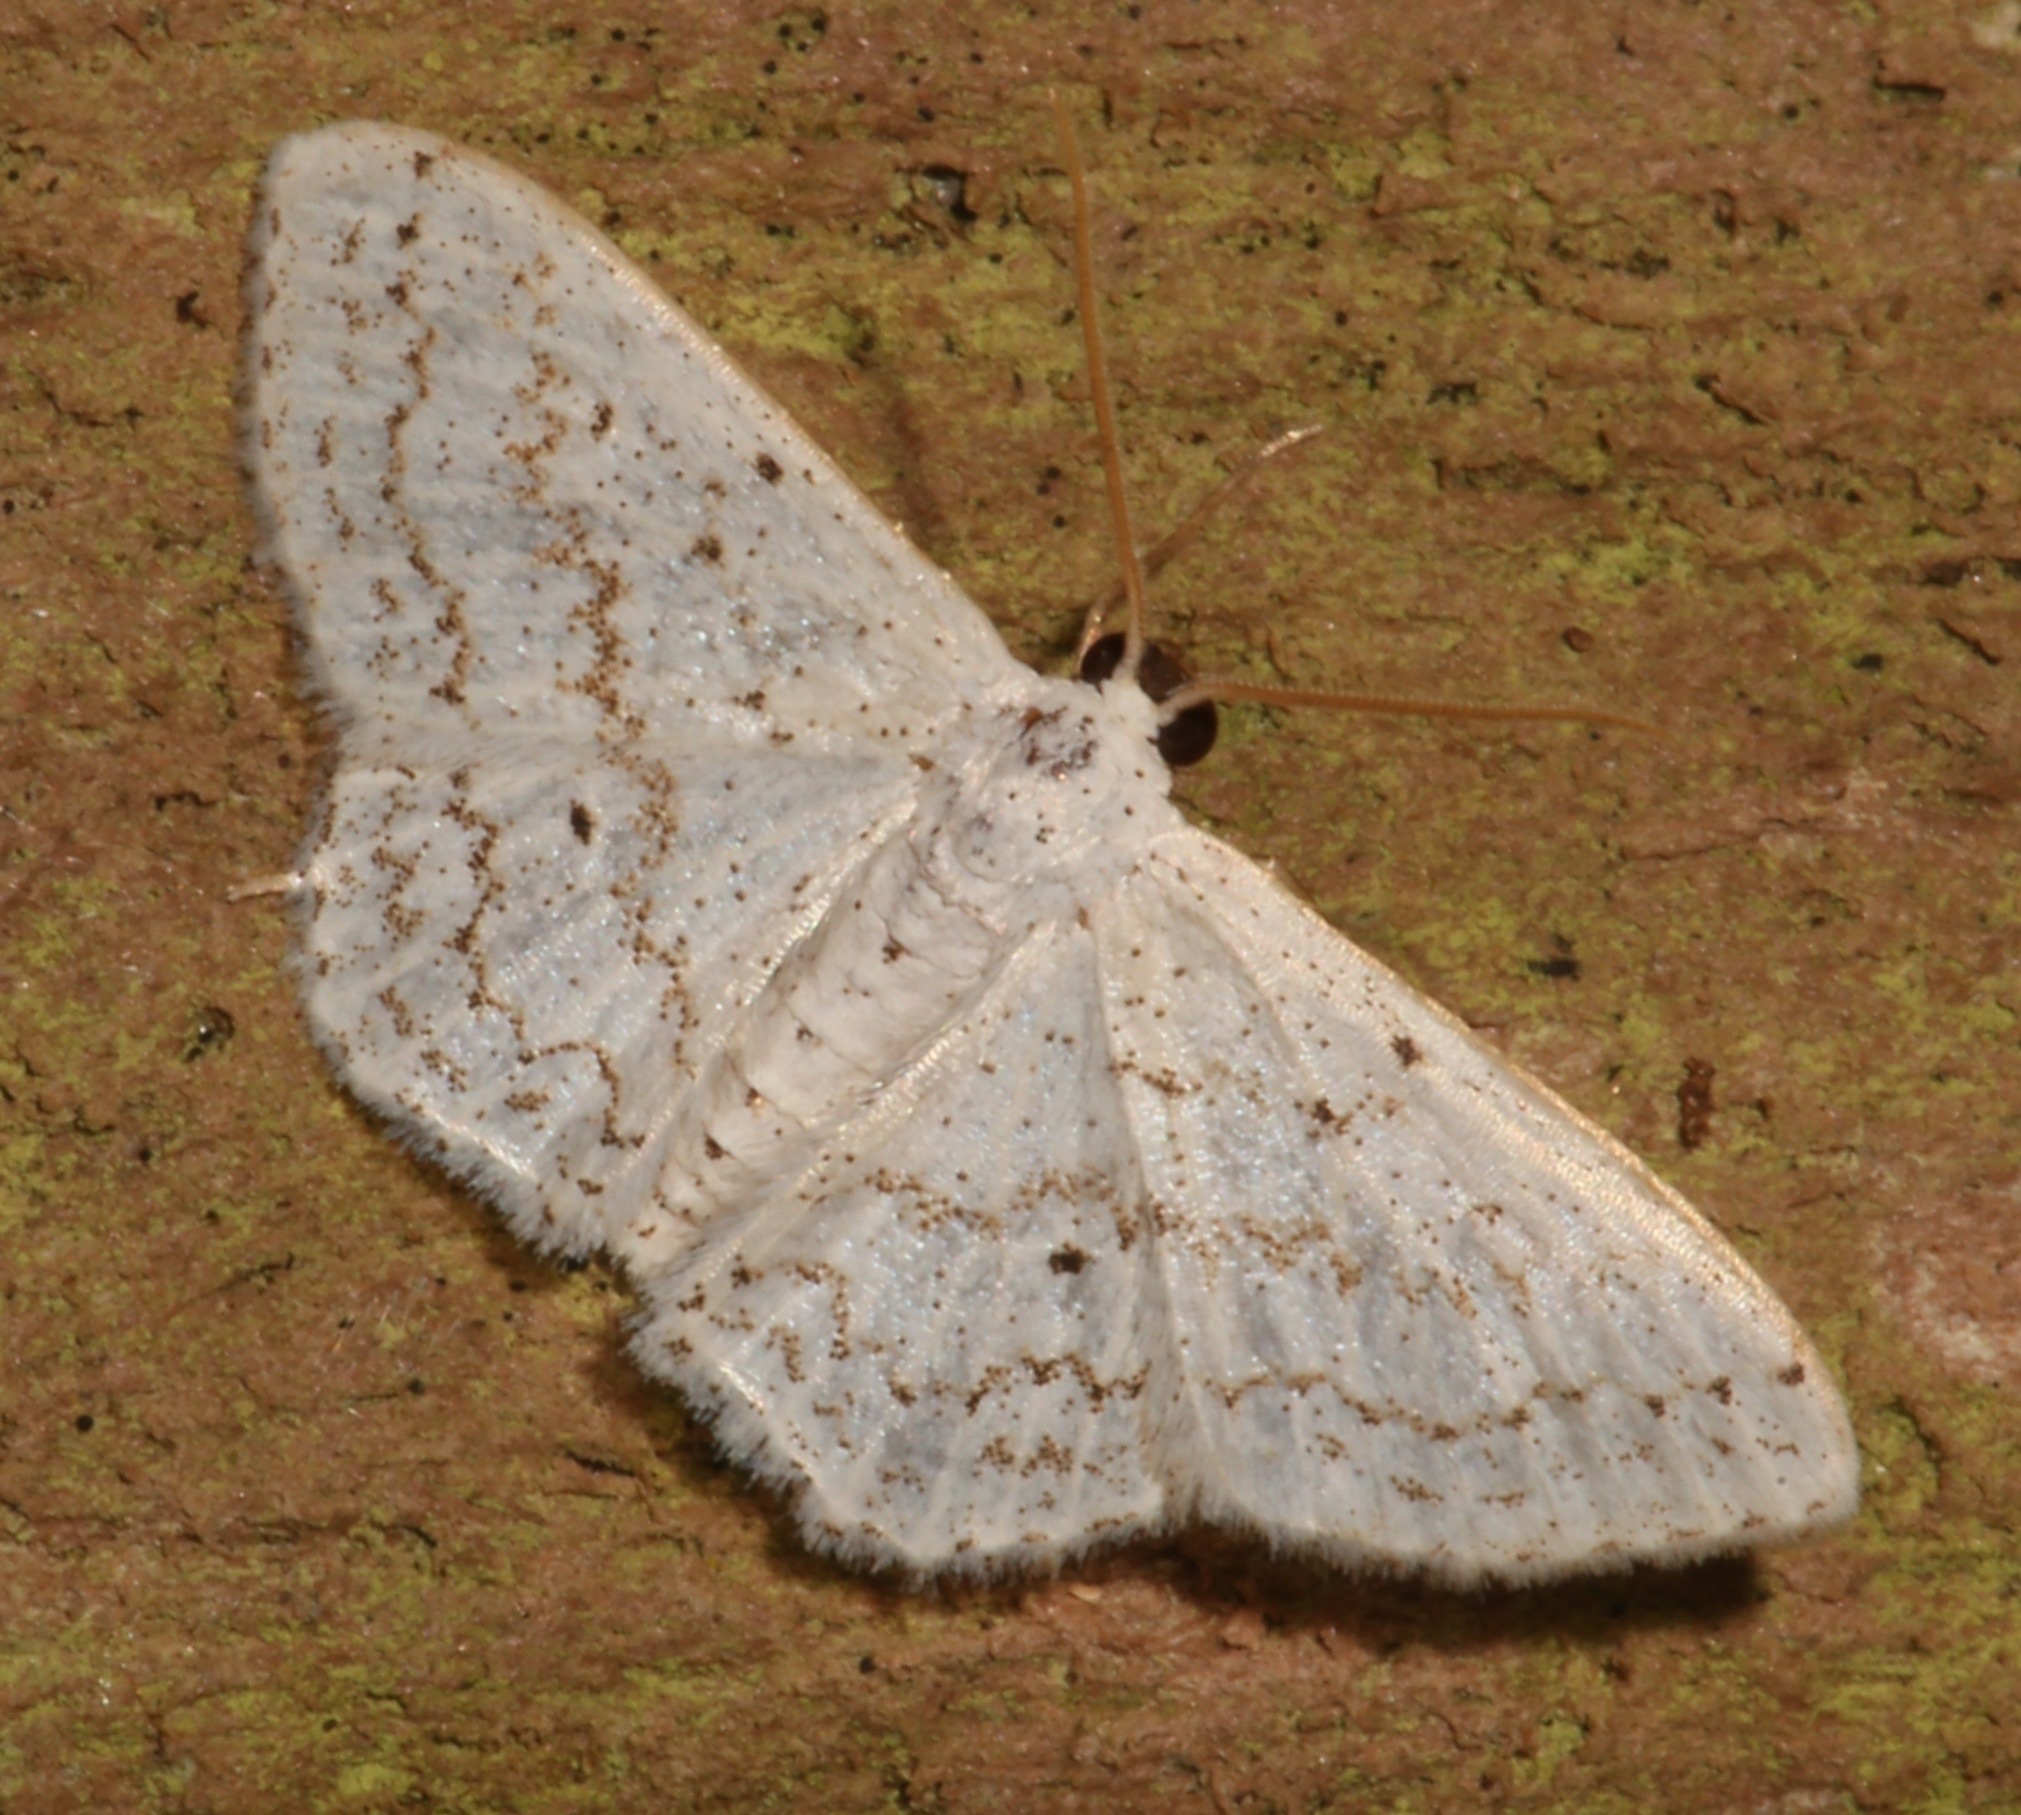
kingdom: Animalia
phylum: Arthropoda
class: Insecta
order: Lepidoptera
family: Geometridae
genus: Idaea
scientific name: Idaea tacturata
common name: Dot-lined wave
